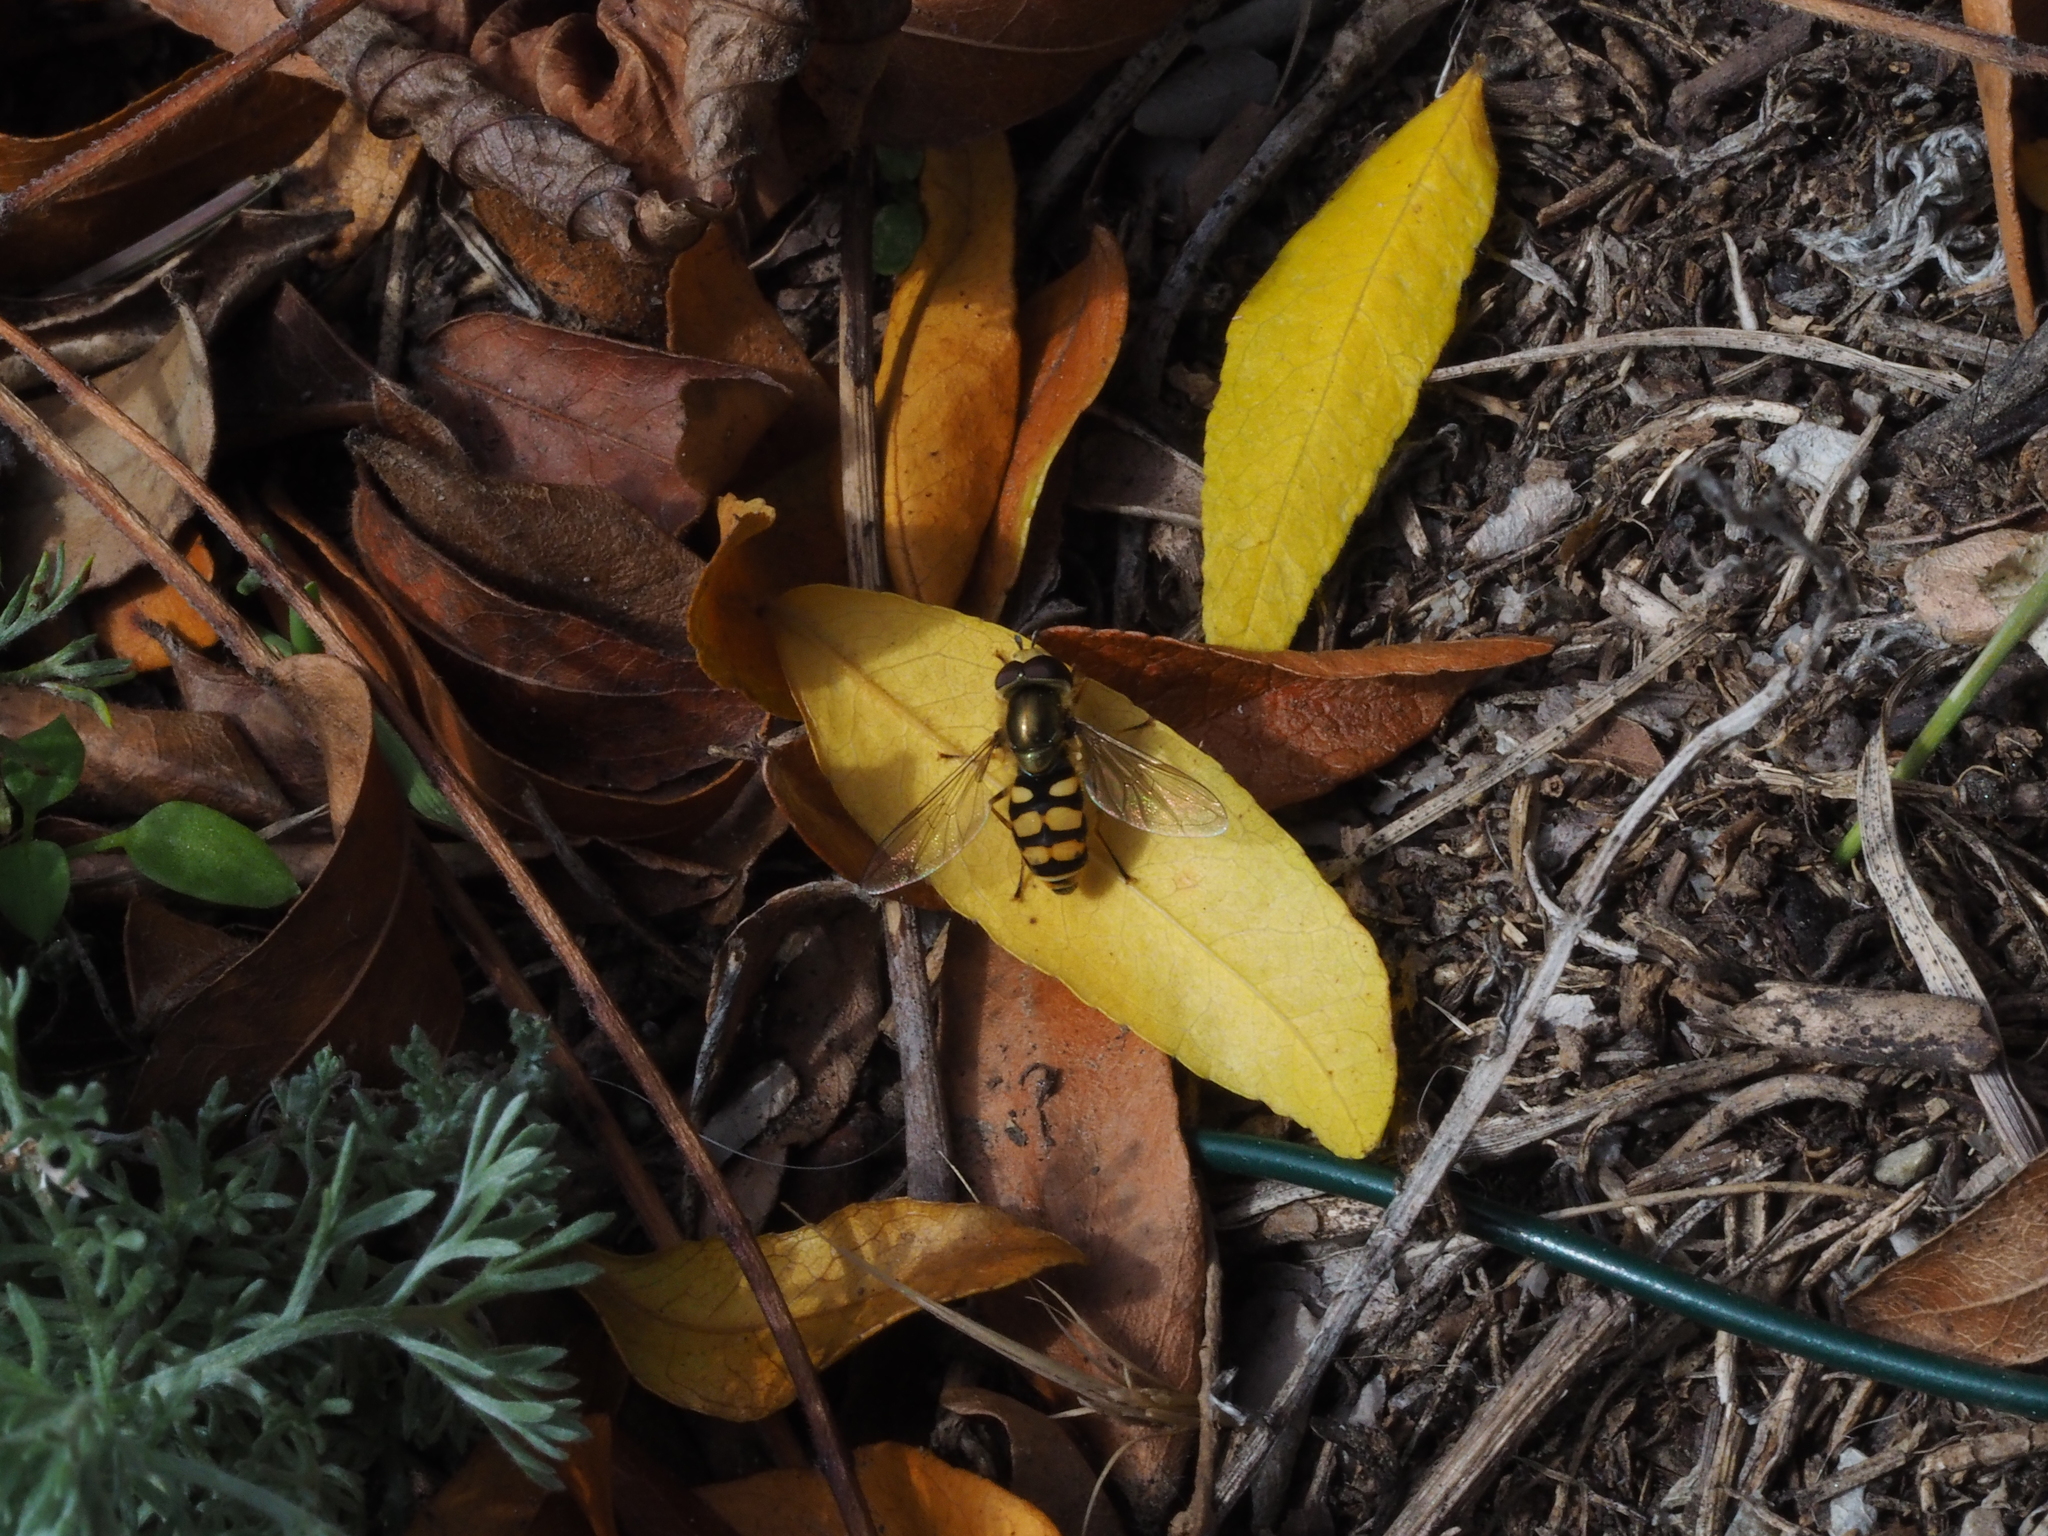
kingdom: Animalia
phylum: Arthropoda
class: Insecta
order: Diptera
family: Syrphidae
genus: Eupeodes
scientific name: Eupeodes corollae
